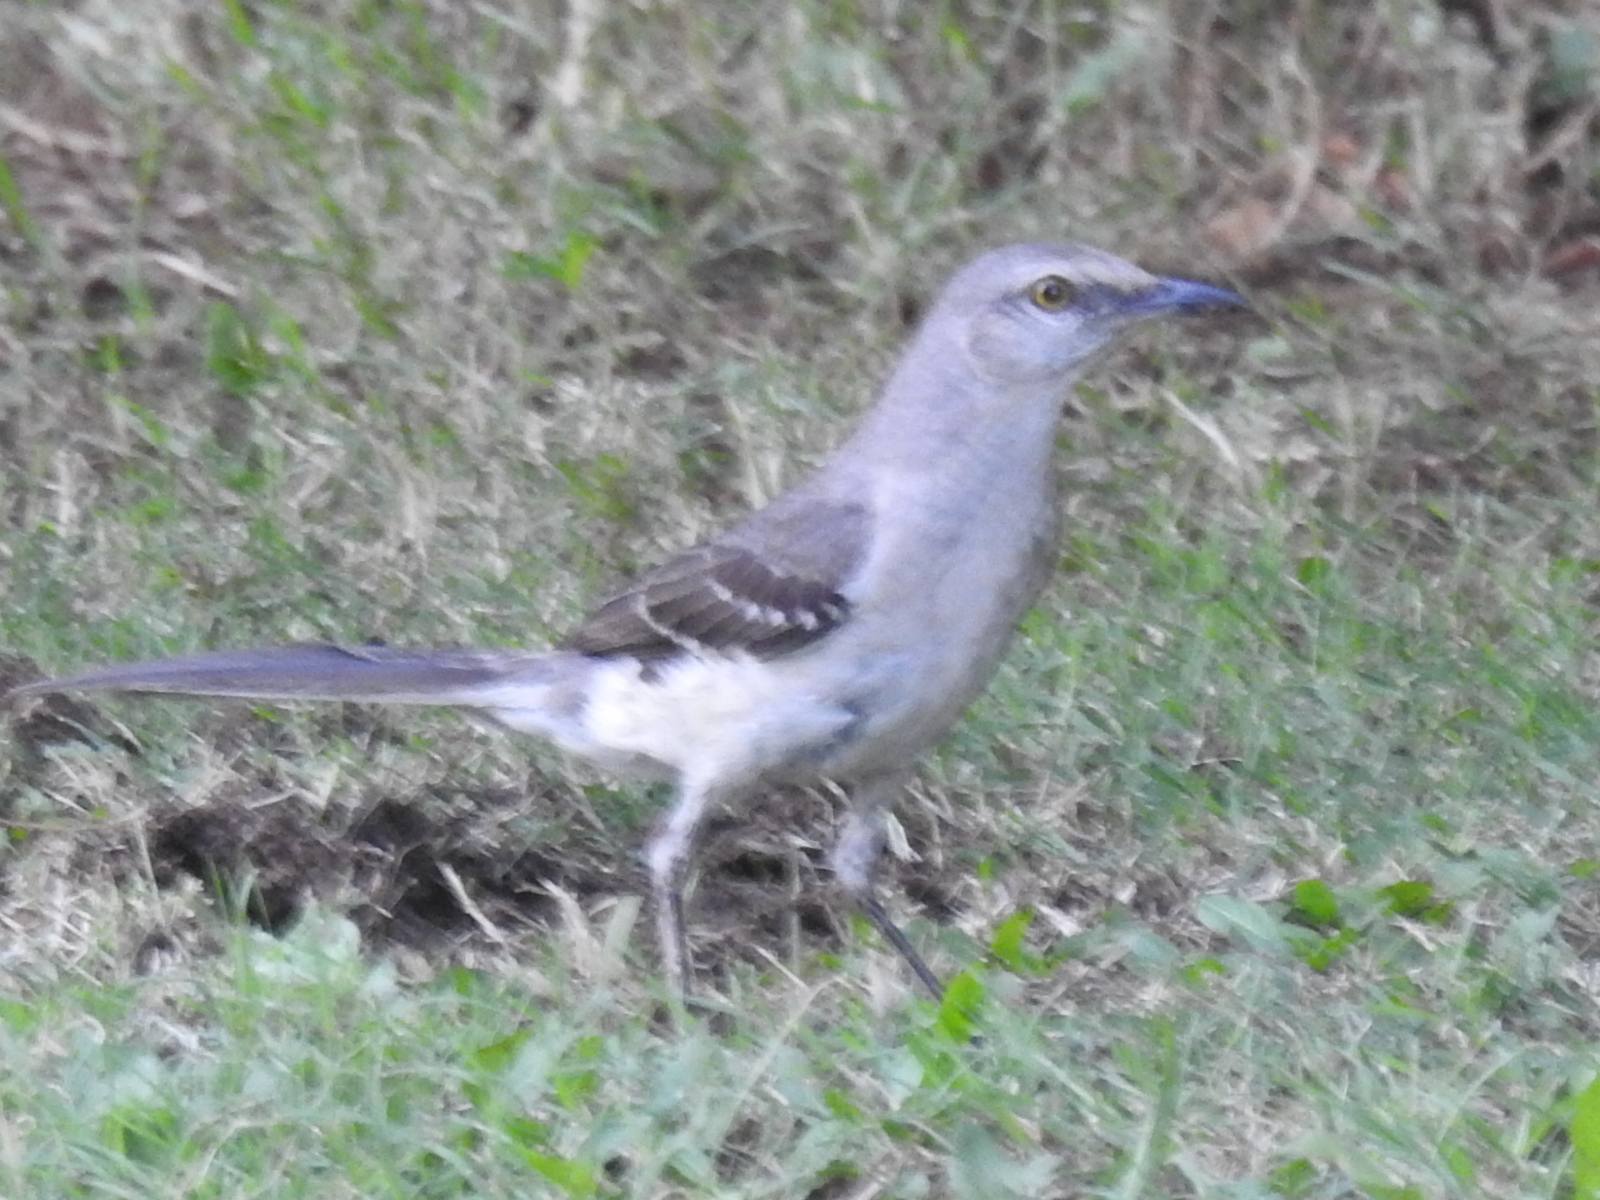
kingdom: Animalia
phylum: Chordata
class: Aves
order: Passeriformes
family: Mimidae
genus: Mimus
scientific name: Mimus polyglottos
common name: Northern mockingbird
